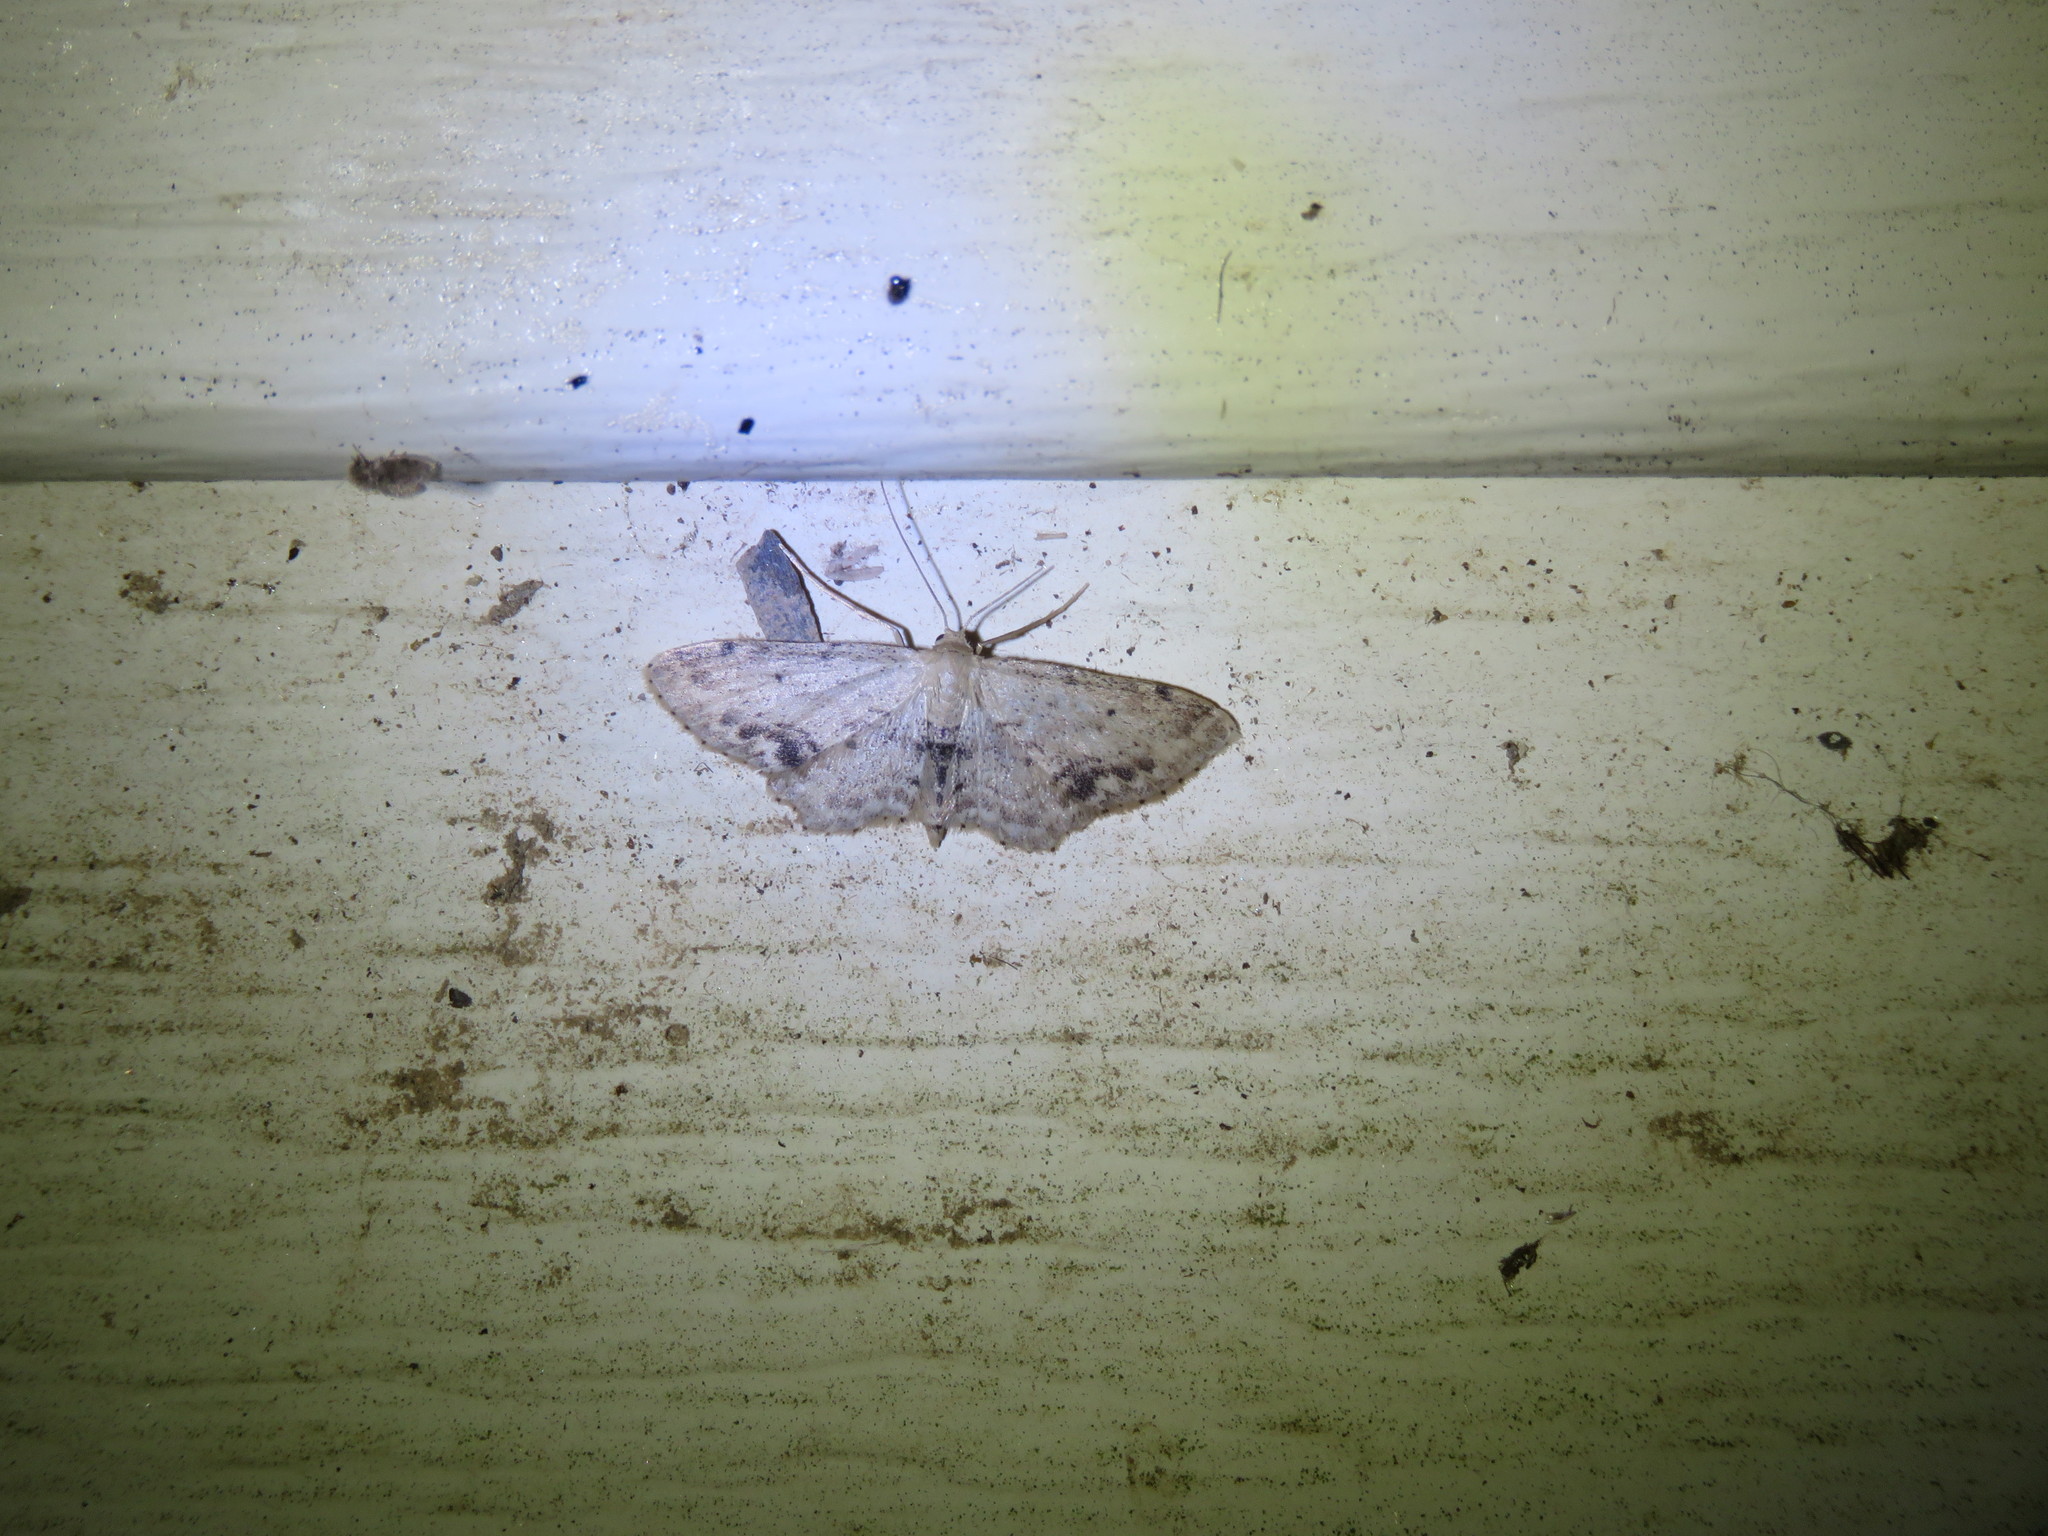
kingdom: Animalia
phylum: Arthropoda
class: Insecta
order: Lepidoptera
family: Geometridae
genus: Idaea
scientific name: Idaea dimidiata
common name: Single-dotted wave
